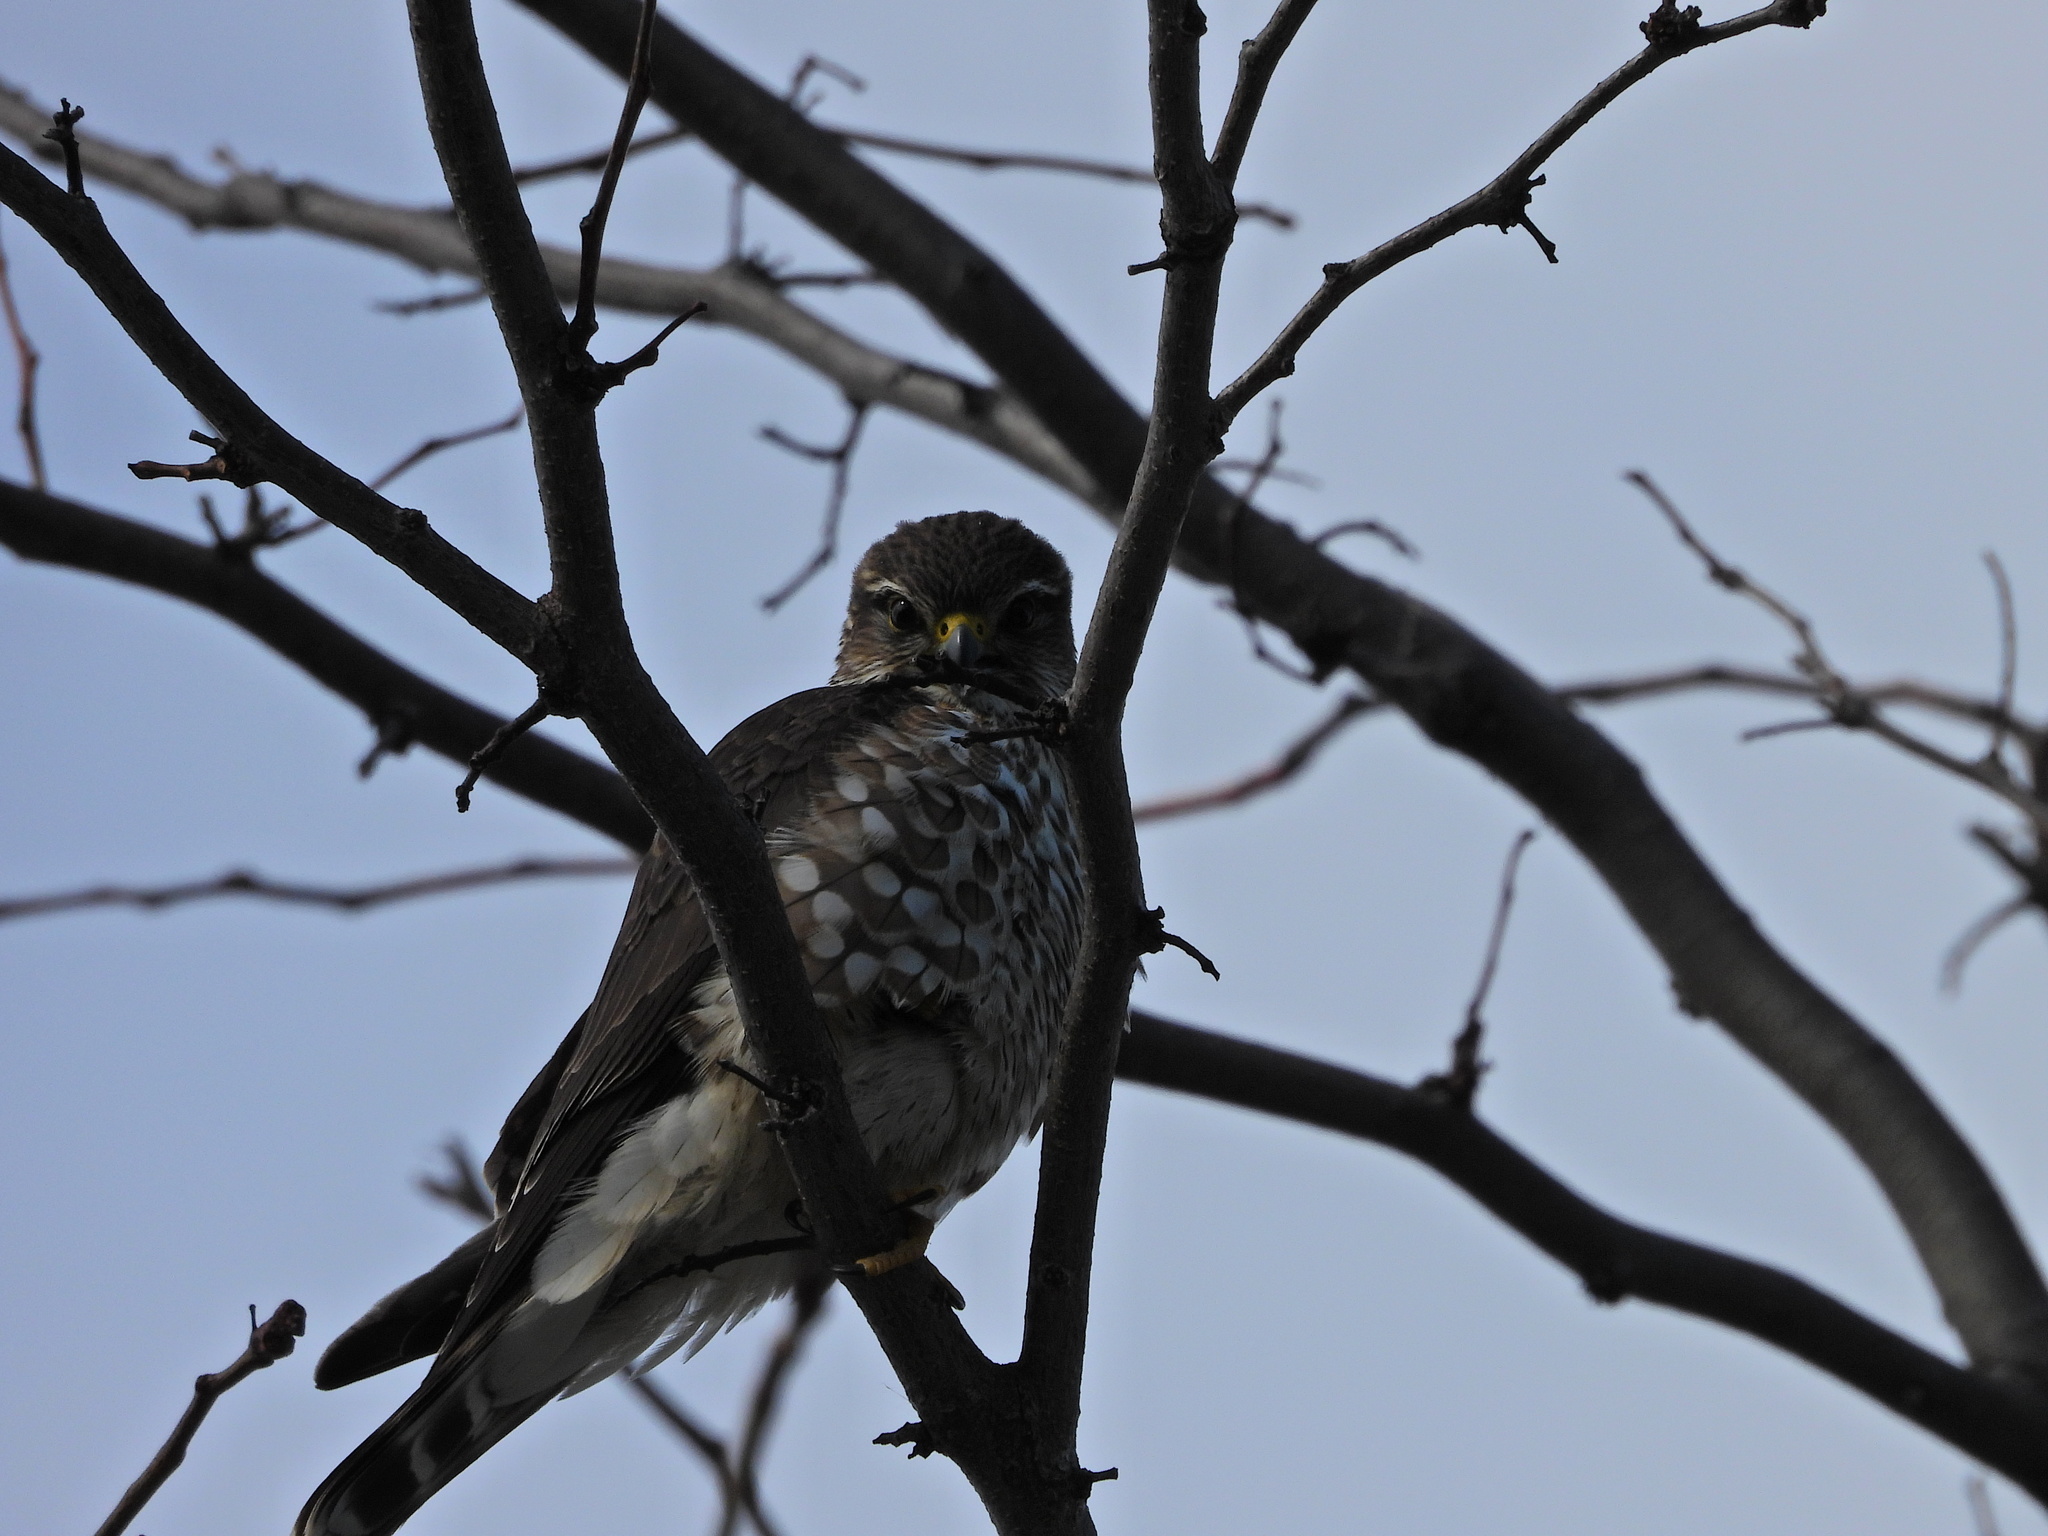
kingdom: Animalia
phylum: Chordata
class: Aves
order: Falconiformes
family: Falconidae
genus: Falco
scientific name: Falco columbarius
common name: Merlin
